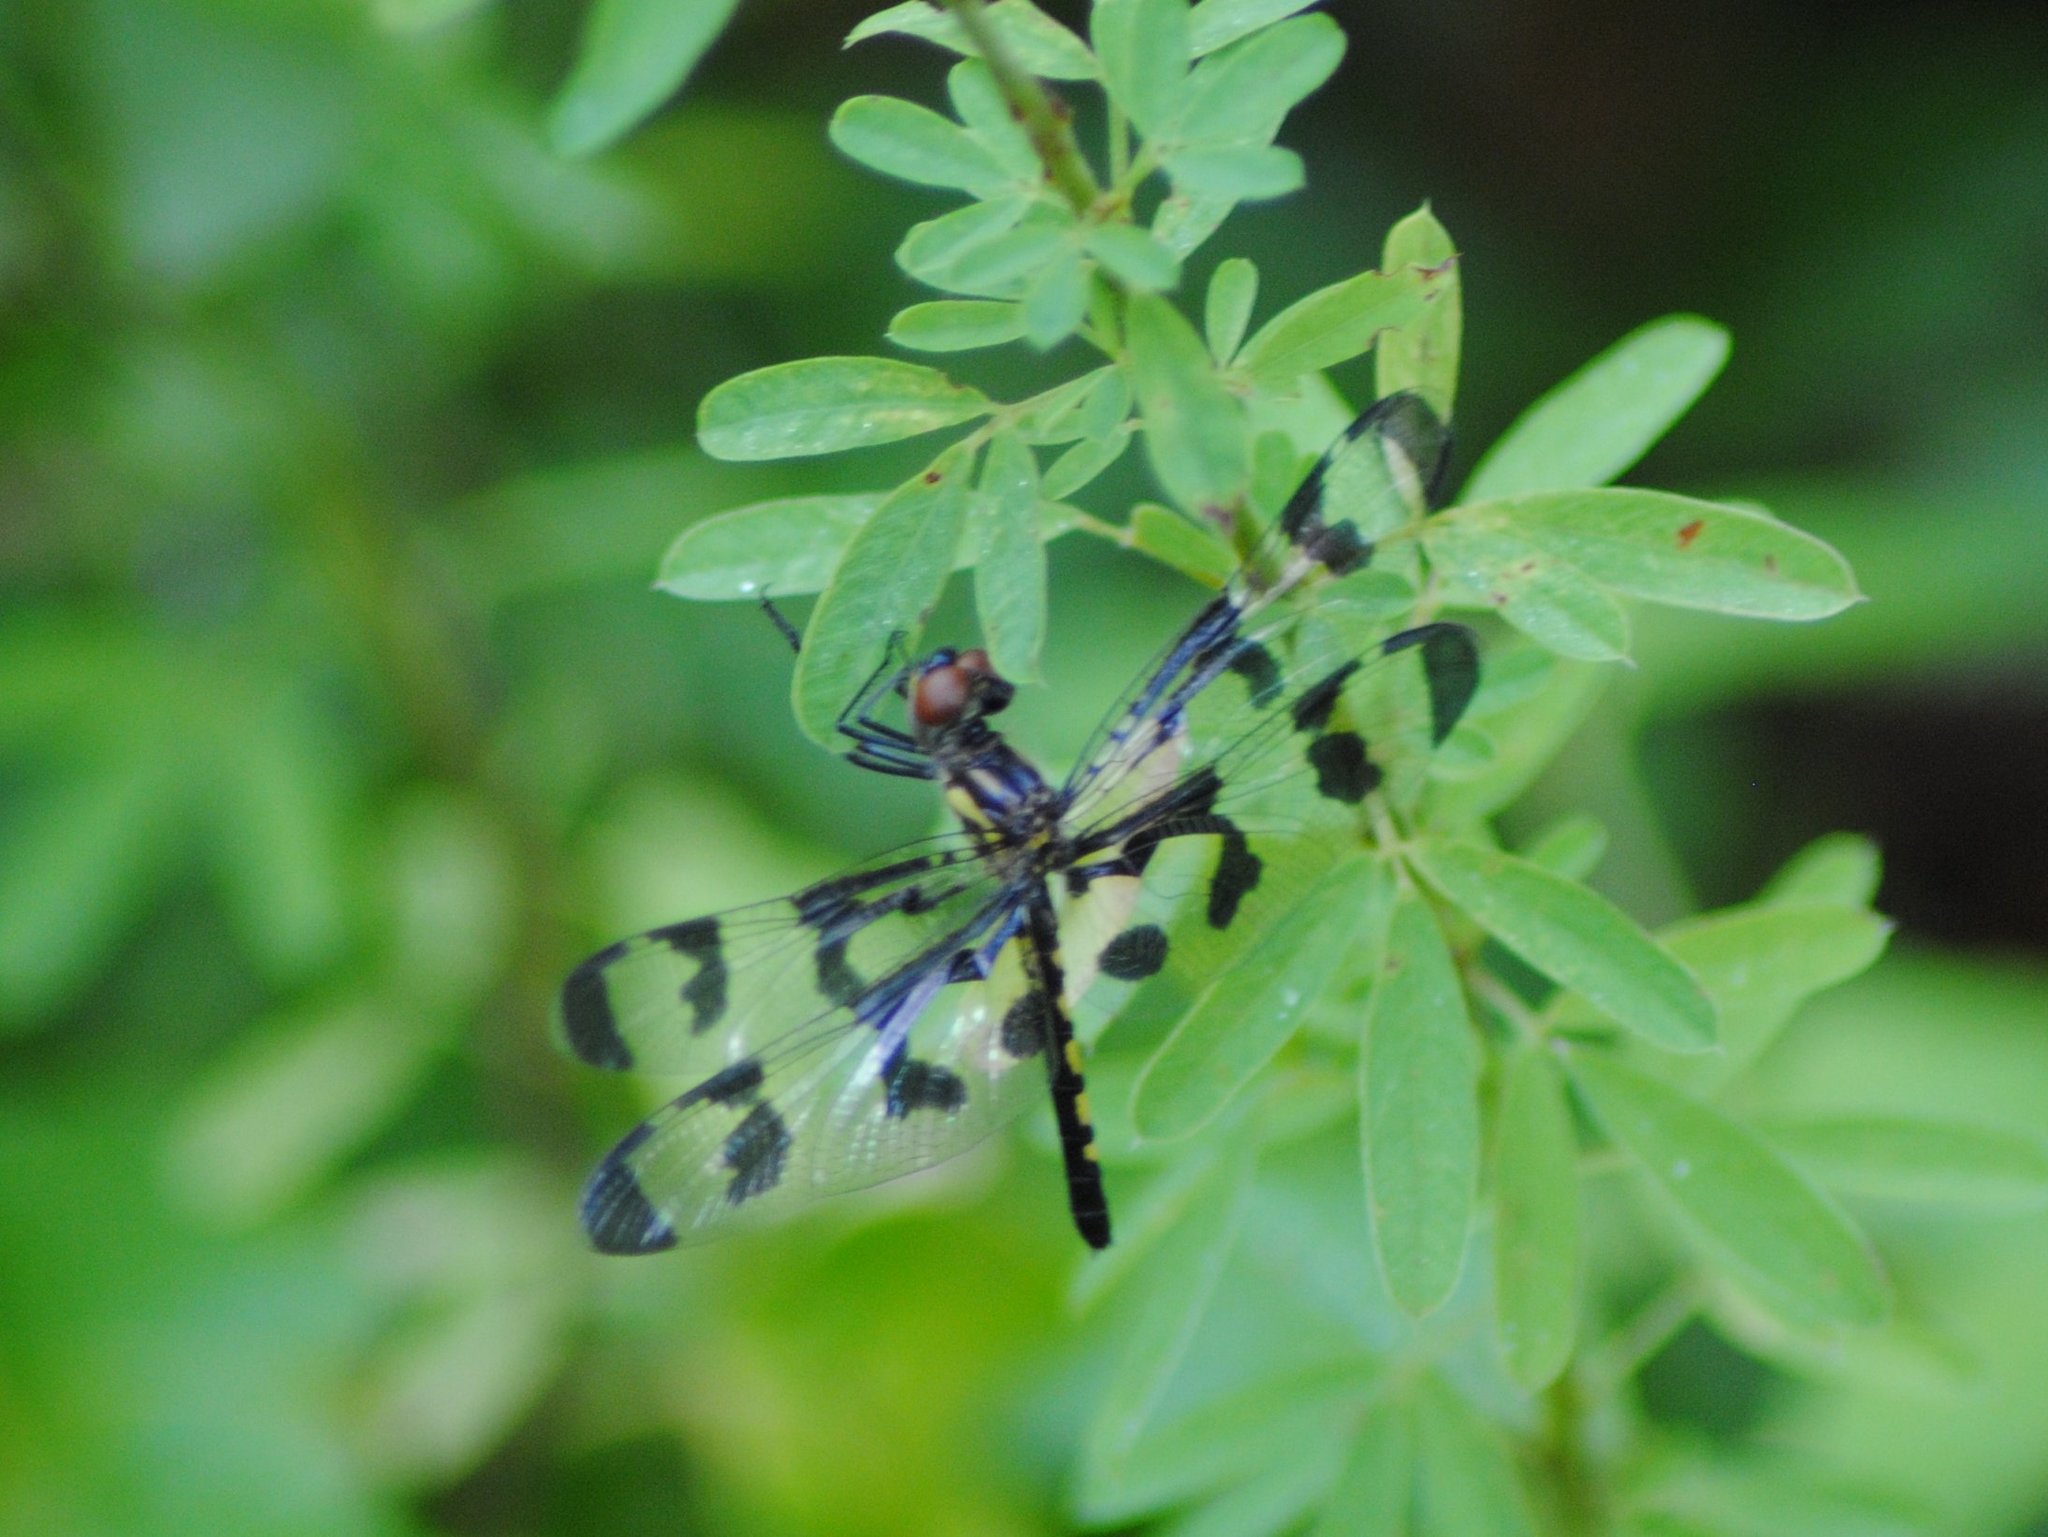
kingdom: Animalia
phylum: Arthropoda
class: Insecta
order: Odonata
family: Libellulidae
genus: Celithemis
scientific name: Celithemis fasciata
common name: Banded pennant
